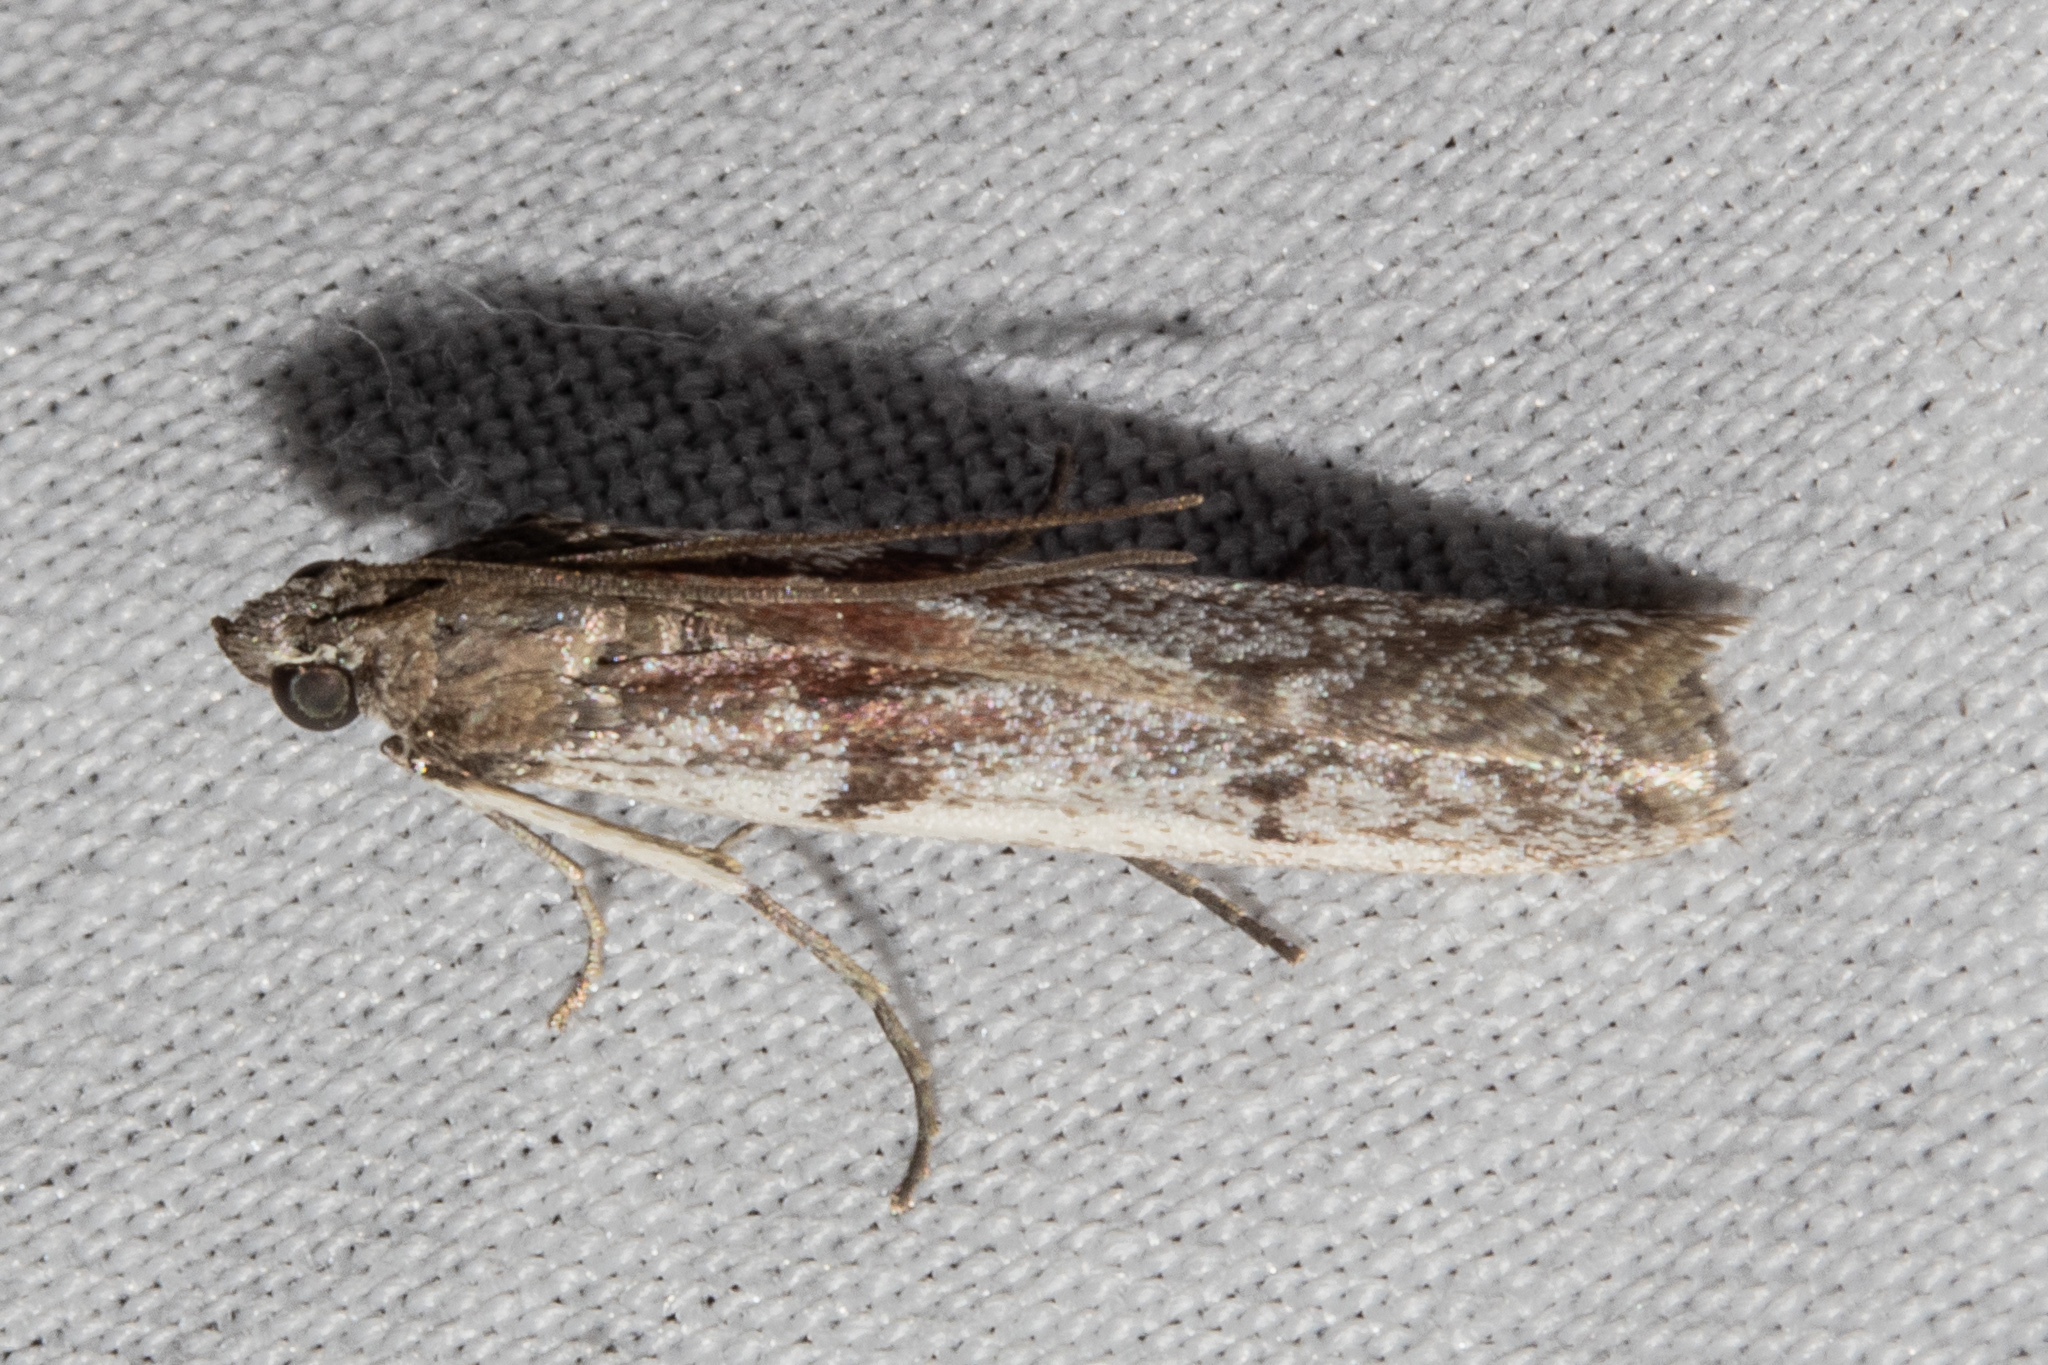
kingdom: Animalia
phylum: Arthropoda
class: Insecta
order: Lepidoptera
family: Pyralidae
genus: Patagoniodes
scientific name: Patagoniodes farinaria
